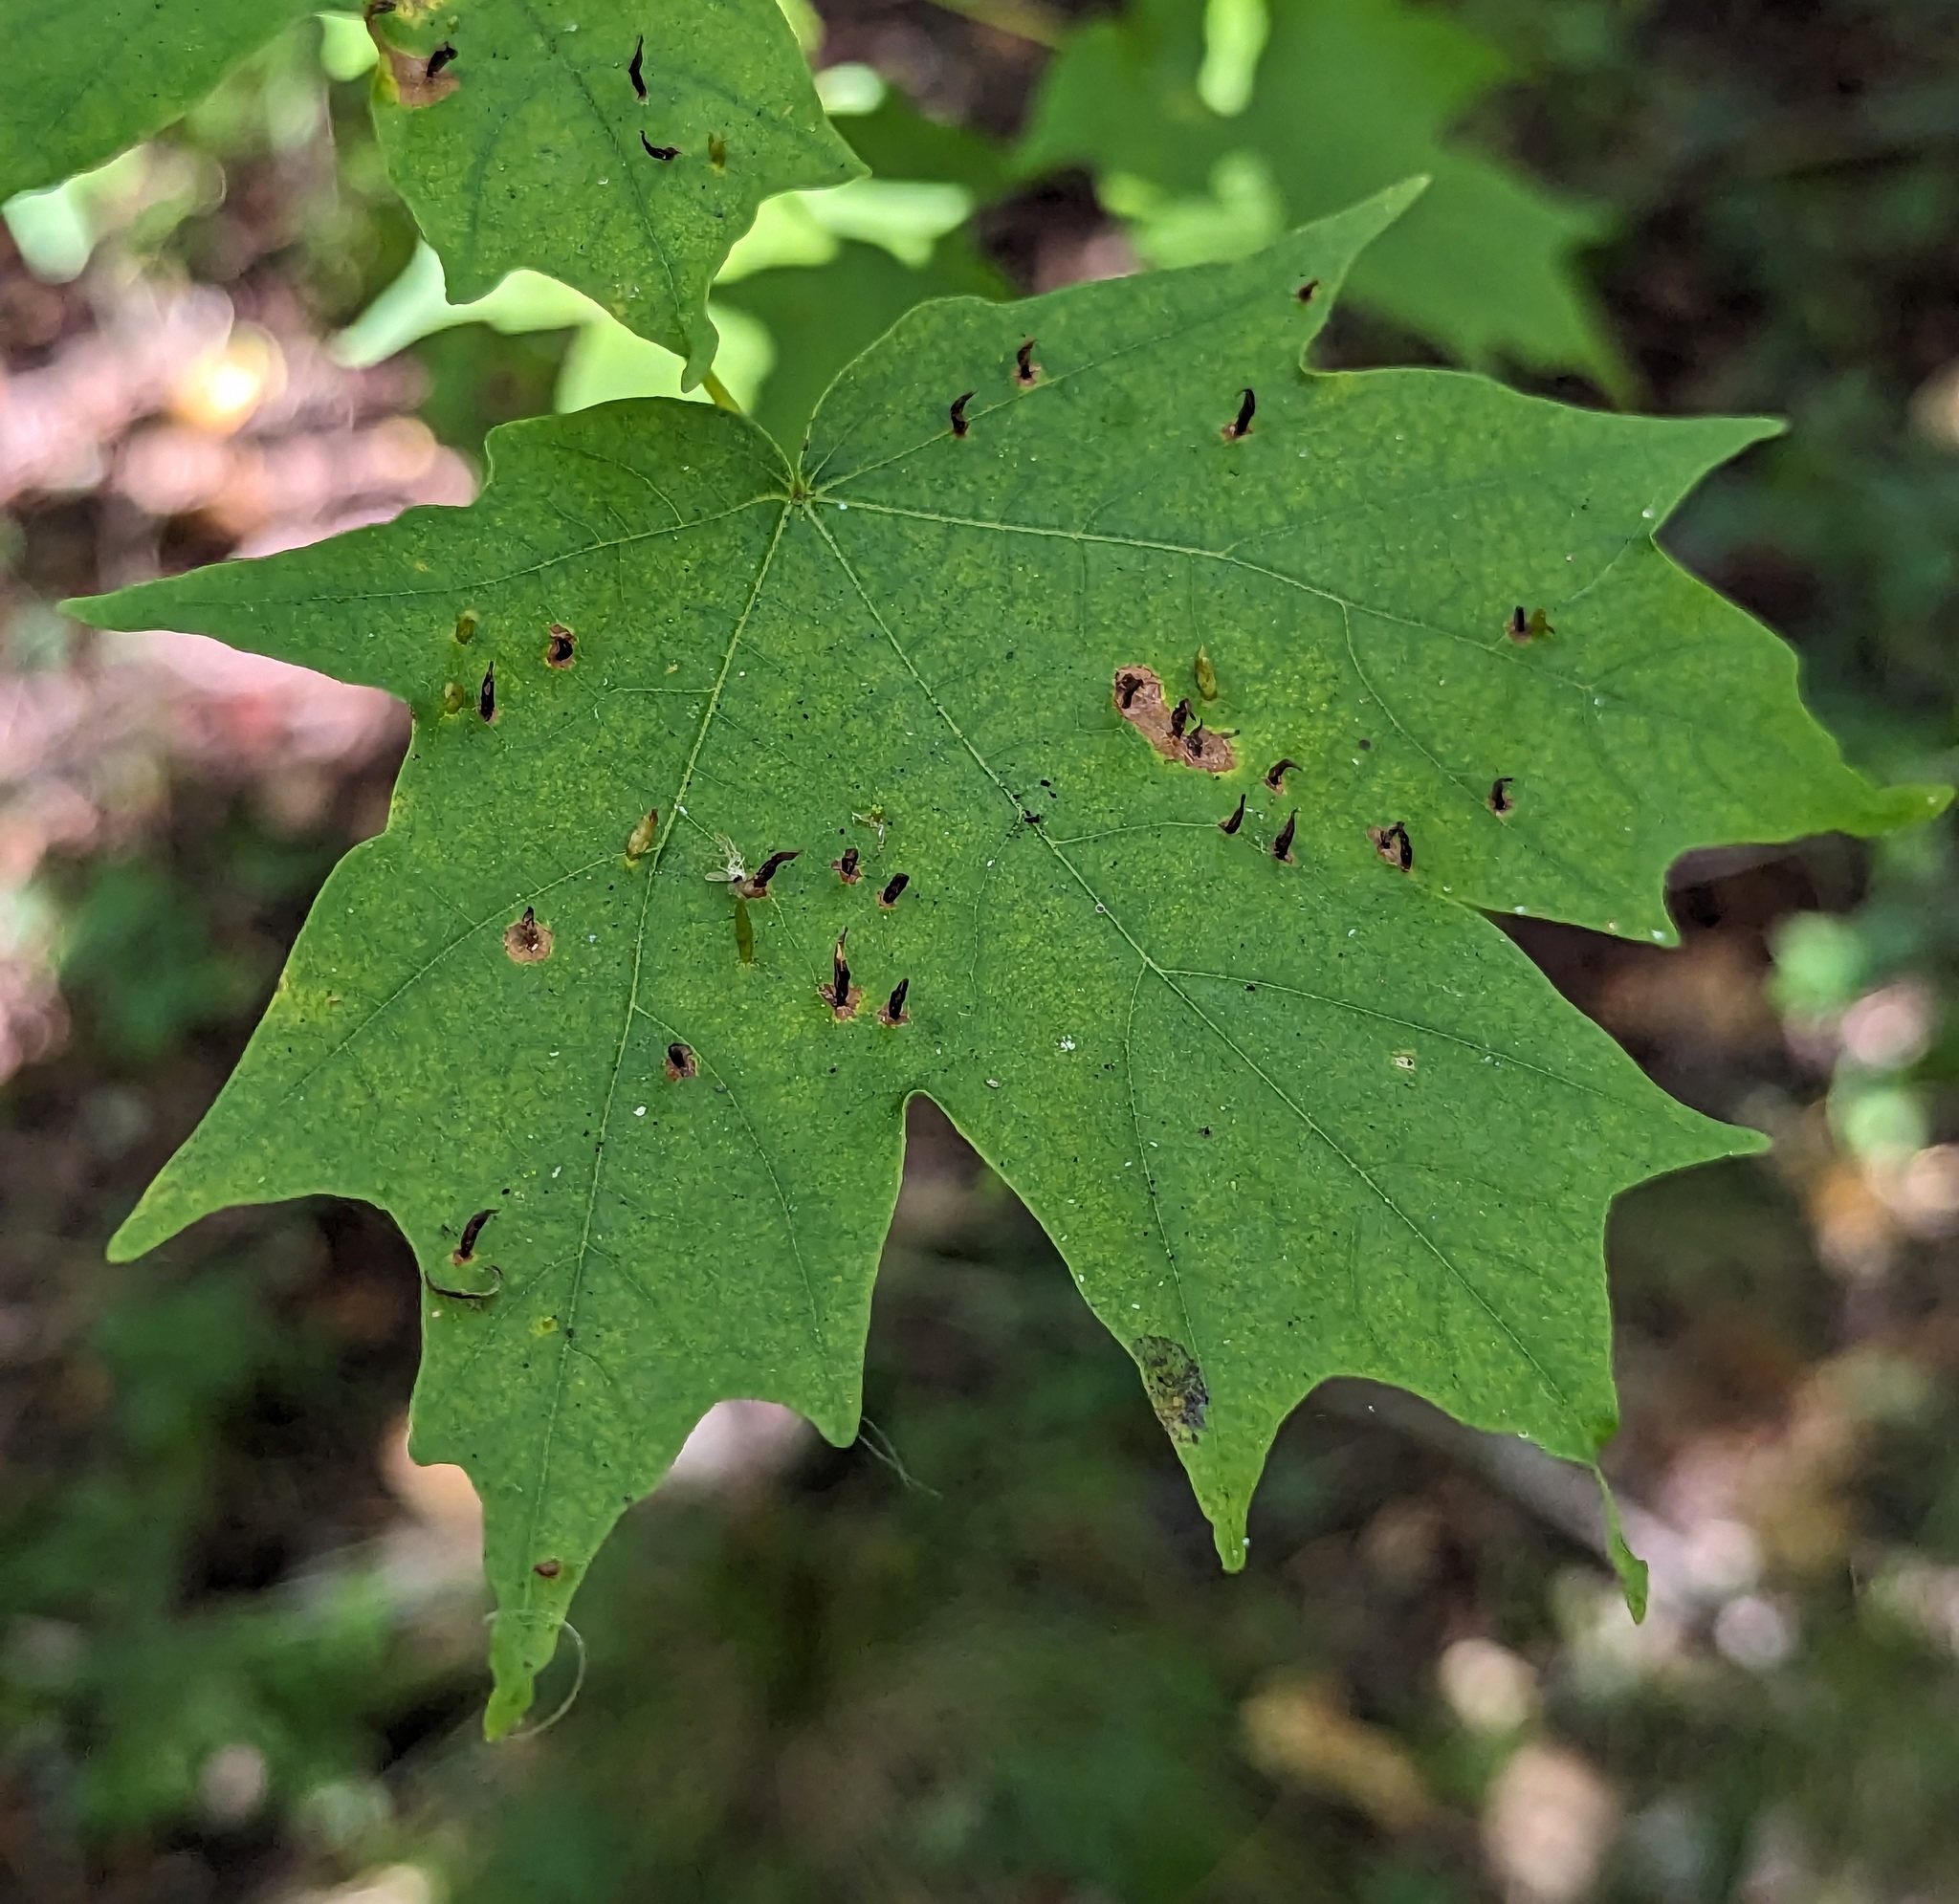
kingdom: Animalia
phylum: Arthropoda
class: Arachnida
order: Trombidiformes
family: Eriophyidae
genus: Vasates
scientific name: Vasates aceriscrumena
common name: Maple spindle gall mite
